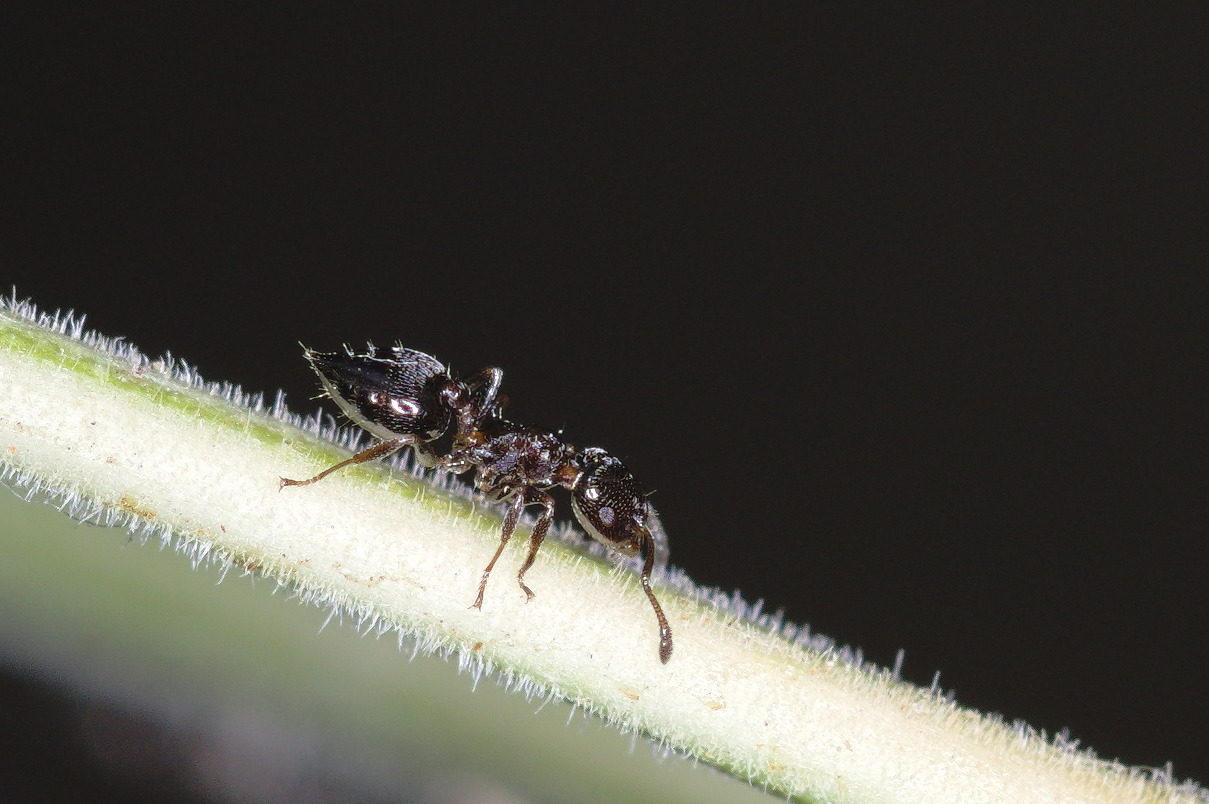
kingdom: Animalia
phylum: Arthropoda
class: Insecta
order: Hymenoptera
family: Formicidae
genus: Crematogaster
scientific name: Crematogaster torosa
